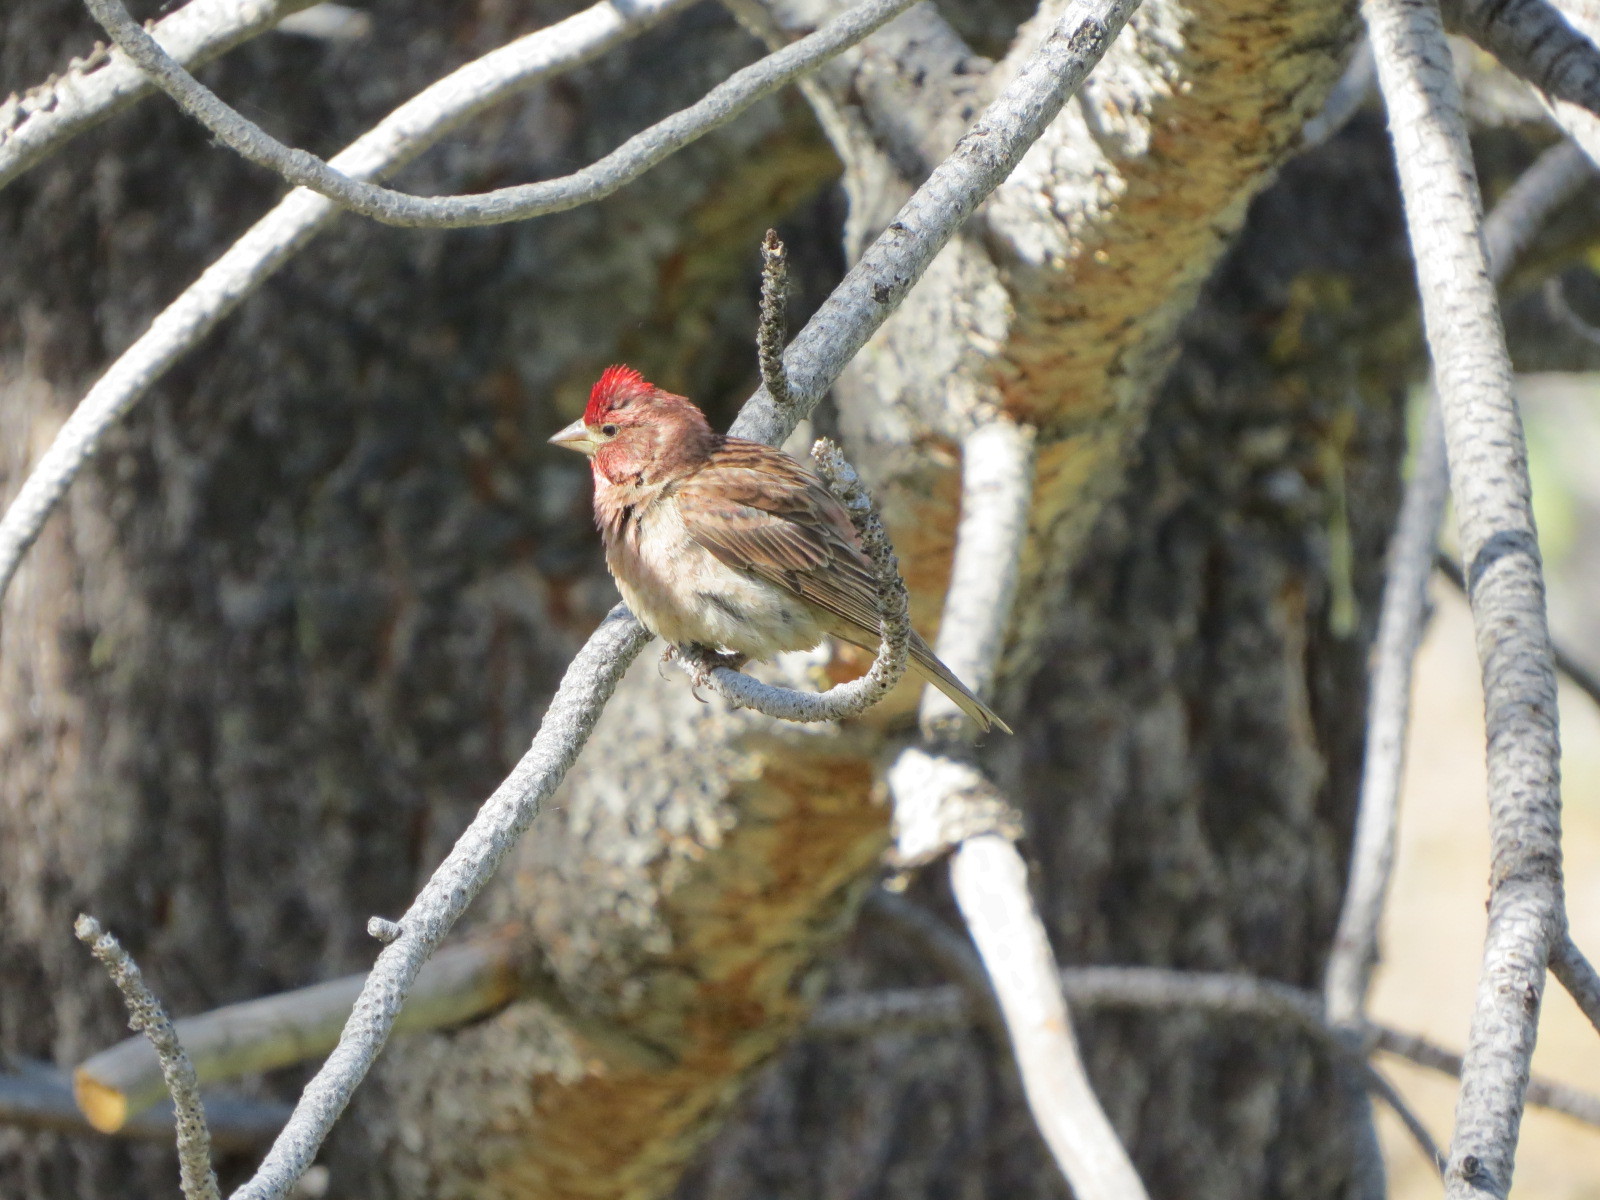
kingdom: Animalia
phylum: Chordata
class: Aves
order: Passeriformes
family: Fringillidae
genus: Haemorhous
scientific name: Haemorhous cassinii
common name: Cassin's finch
